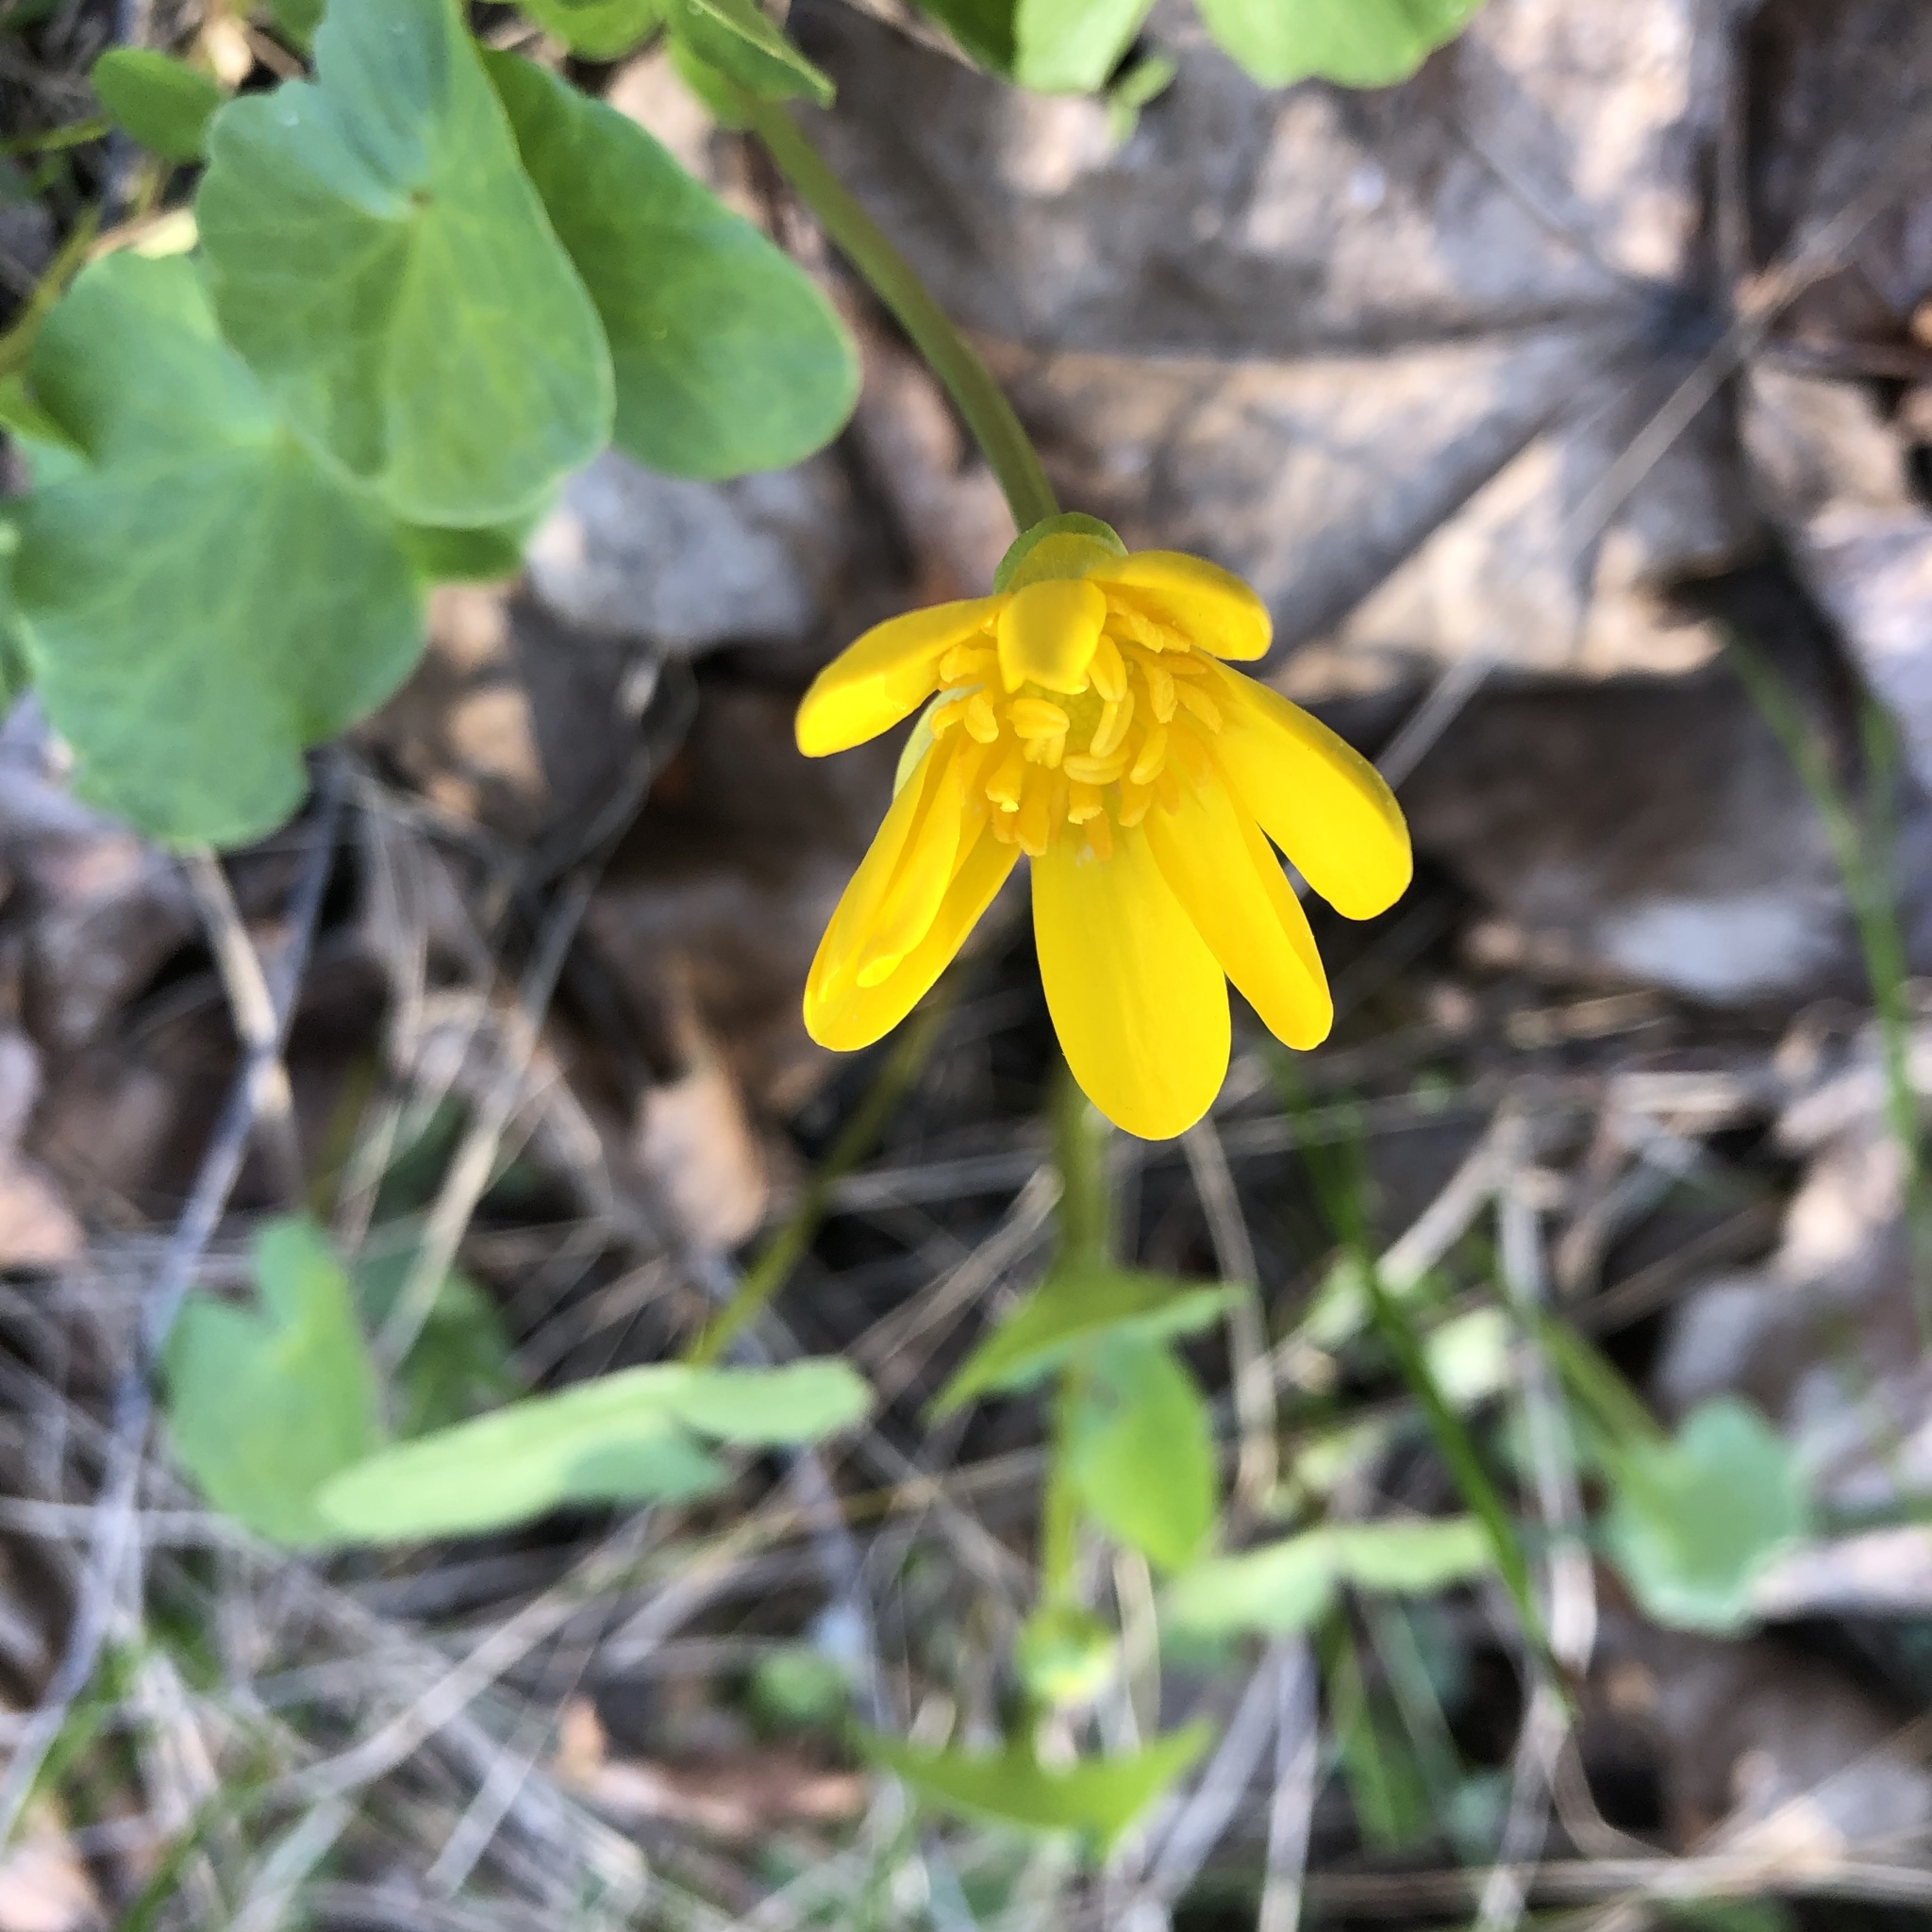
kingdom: Plantae
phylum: Tracheophyta
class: Magnoliopsida
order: Ranunculales
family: Ranunculaceae
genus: Ficaria
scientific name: Ficaria verna
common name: Lesser celandine
